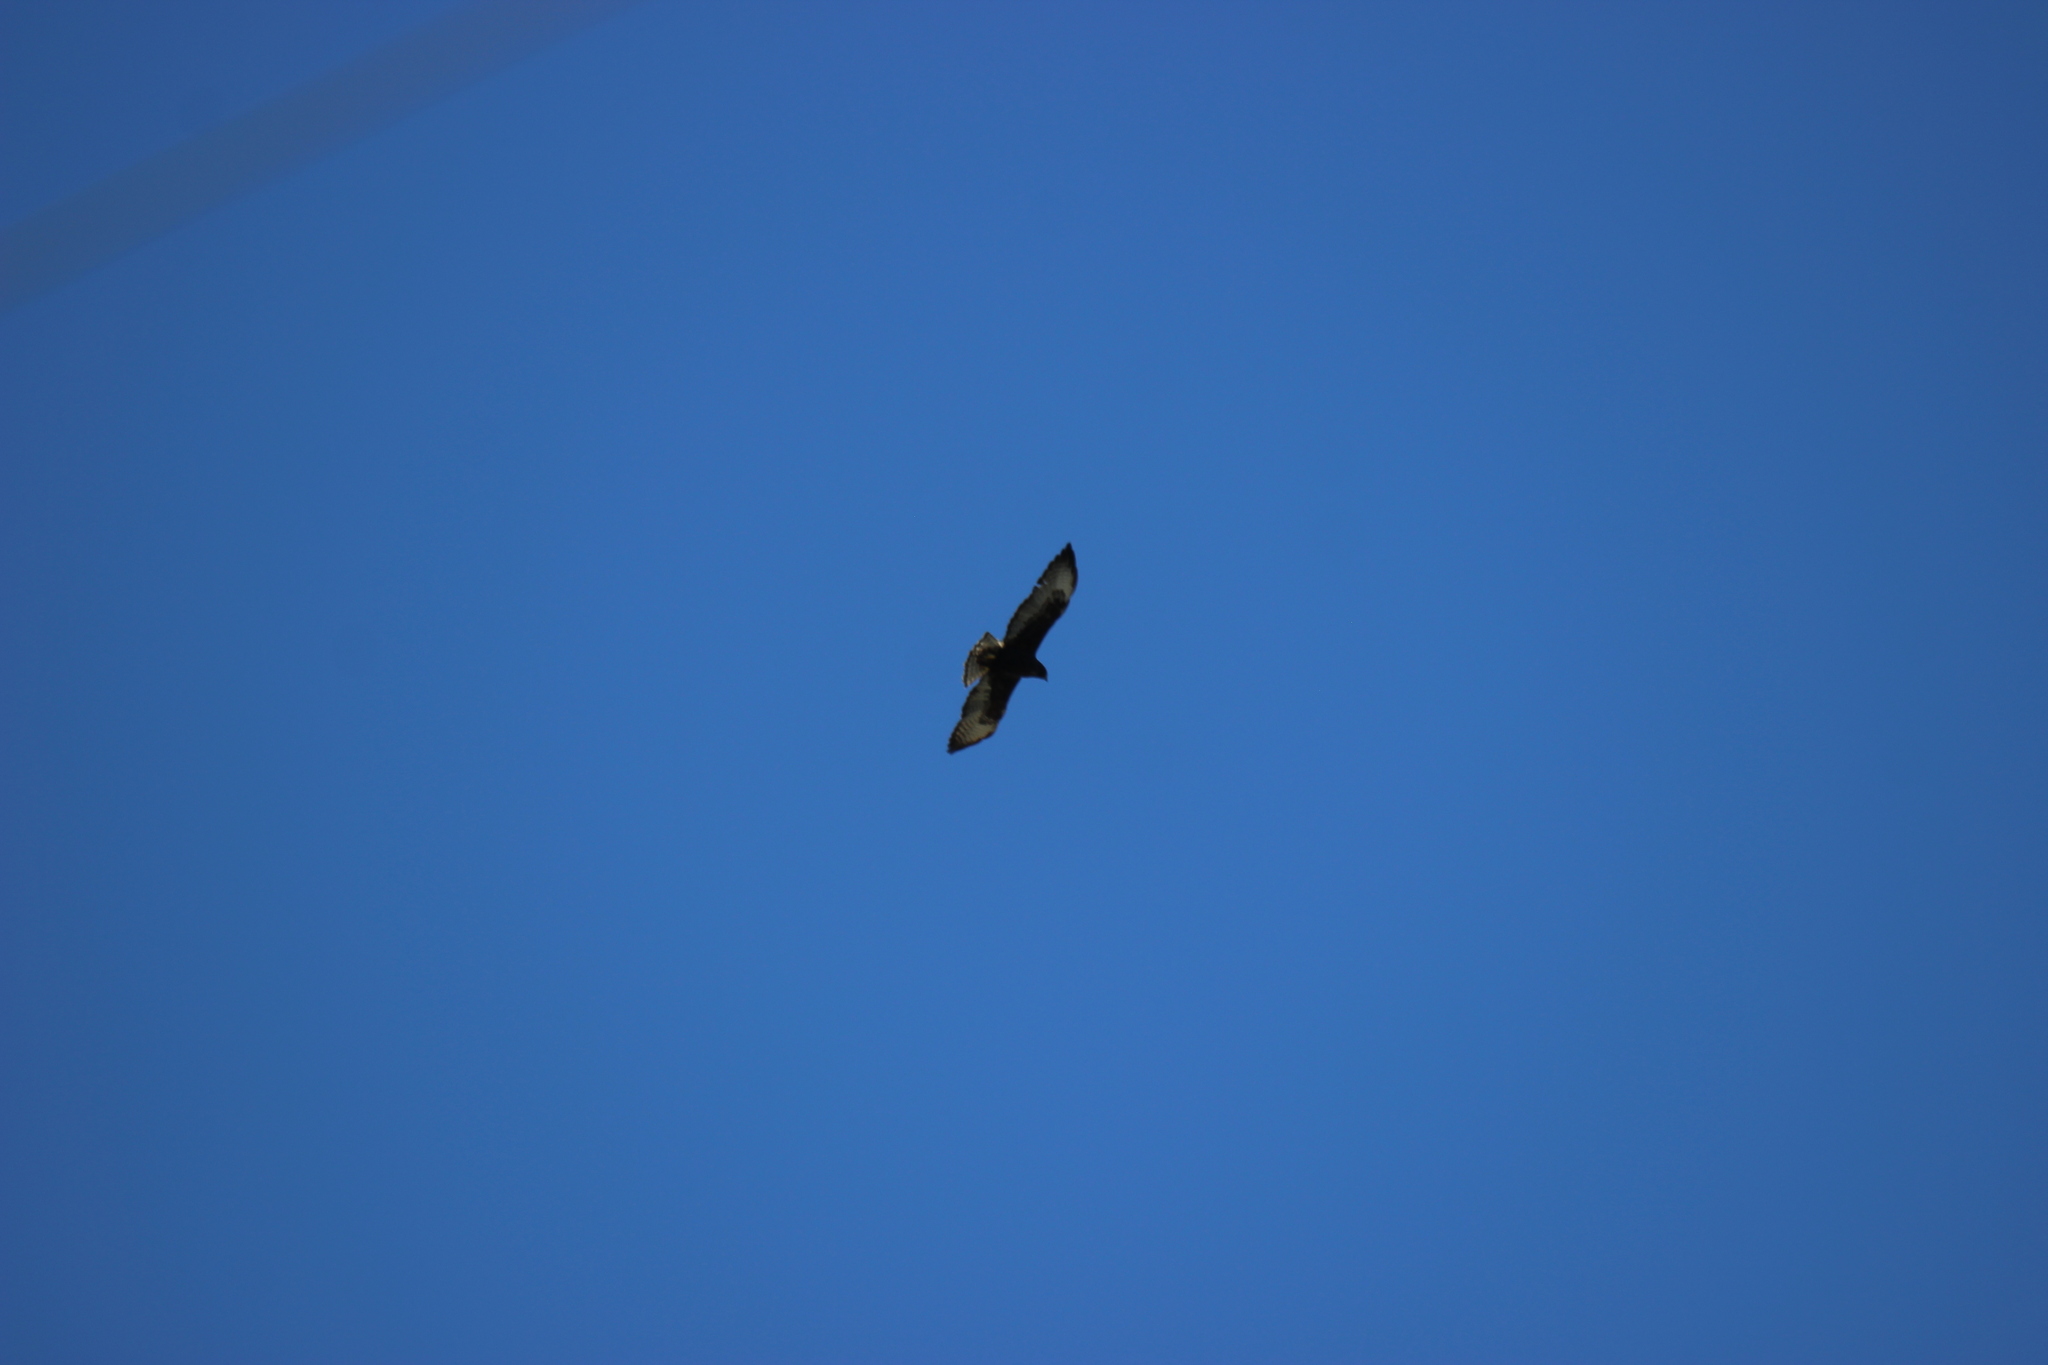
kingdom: Animalia
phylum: Chordata
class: Aves
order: Accipitriformes
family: Accipitridae
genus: Buteo
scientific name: Buteo brachyurus
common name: Short-tailed hawk
